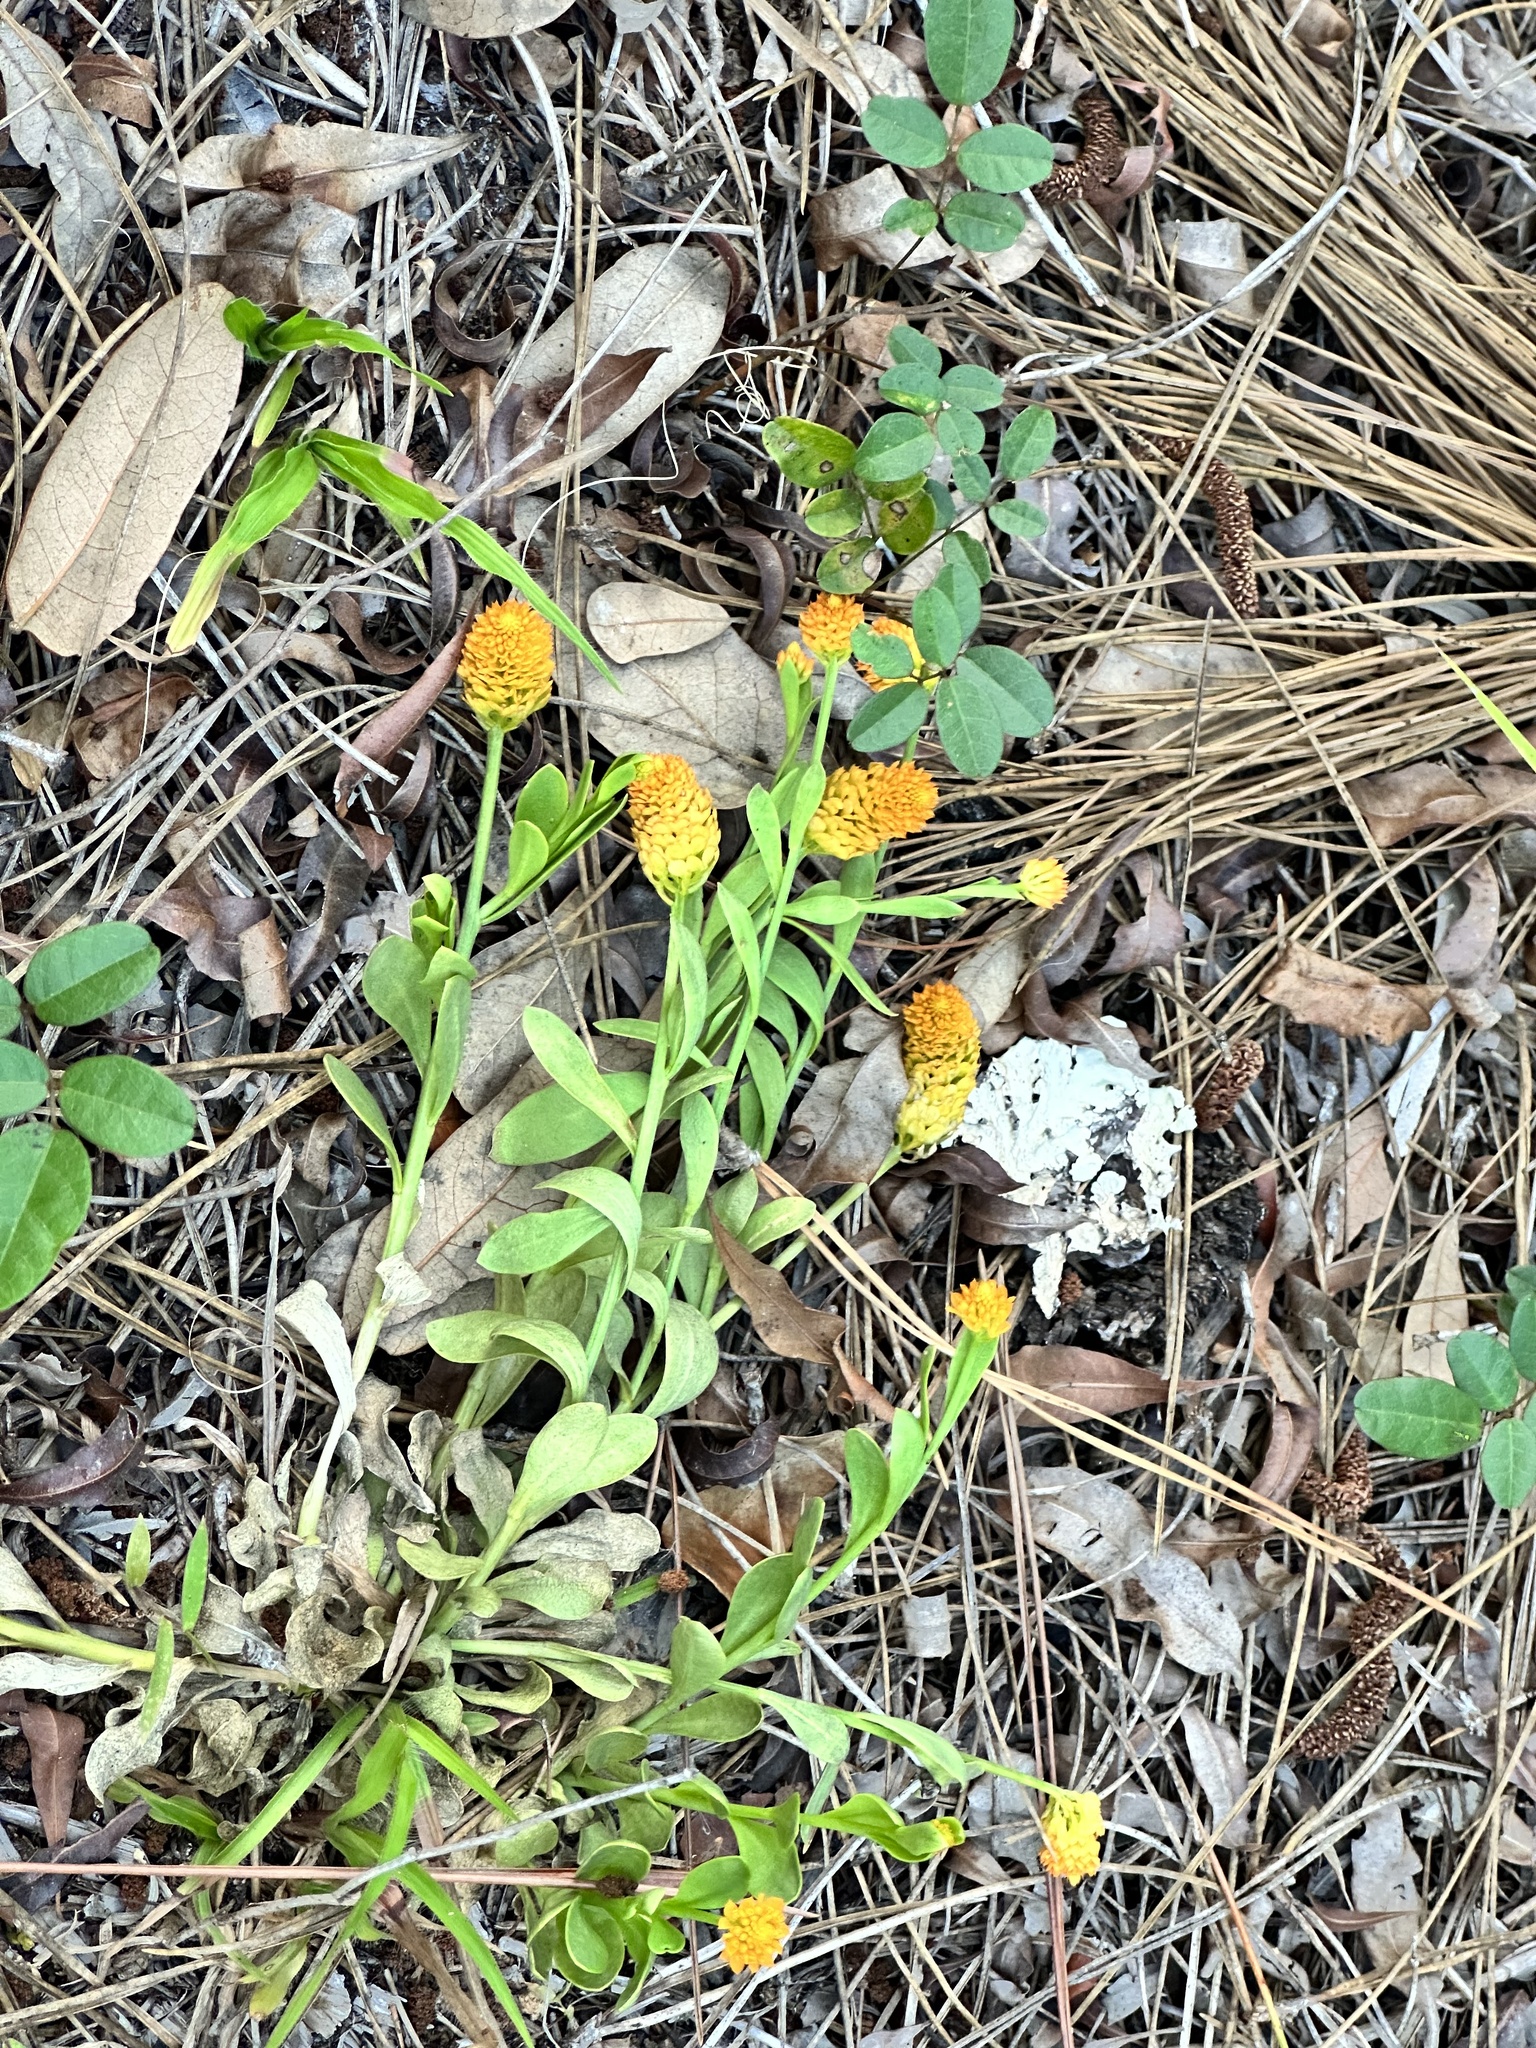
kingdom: Plantae
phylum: Tracheophyta
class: Magnoliopsida
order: Fabales
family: Polygalaceae
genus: Polygala
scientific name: Polygala lutea
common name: Orange milkwort
